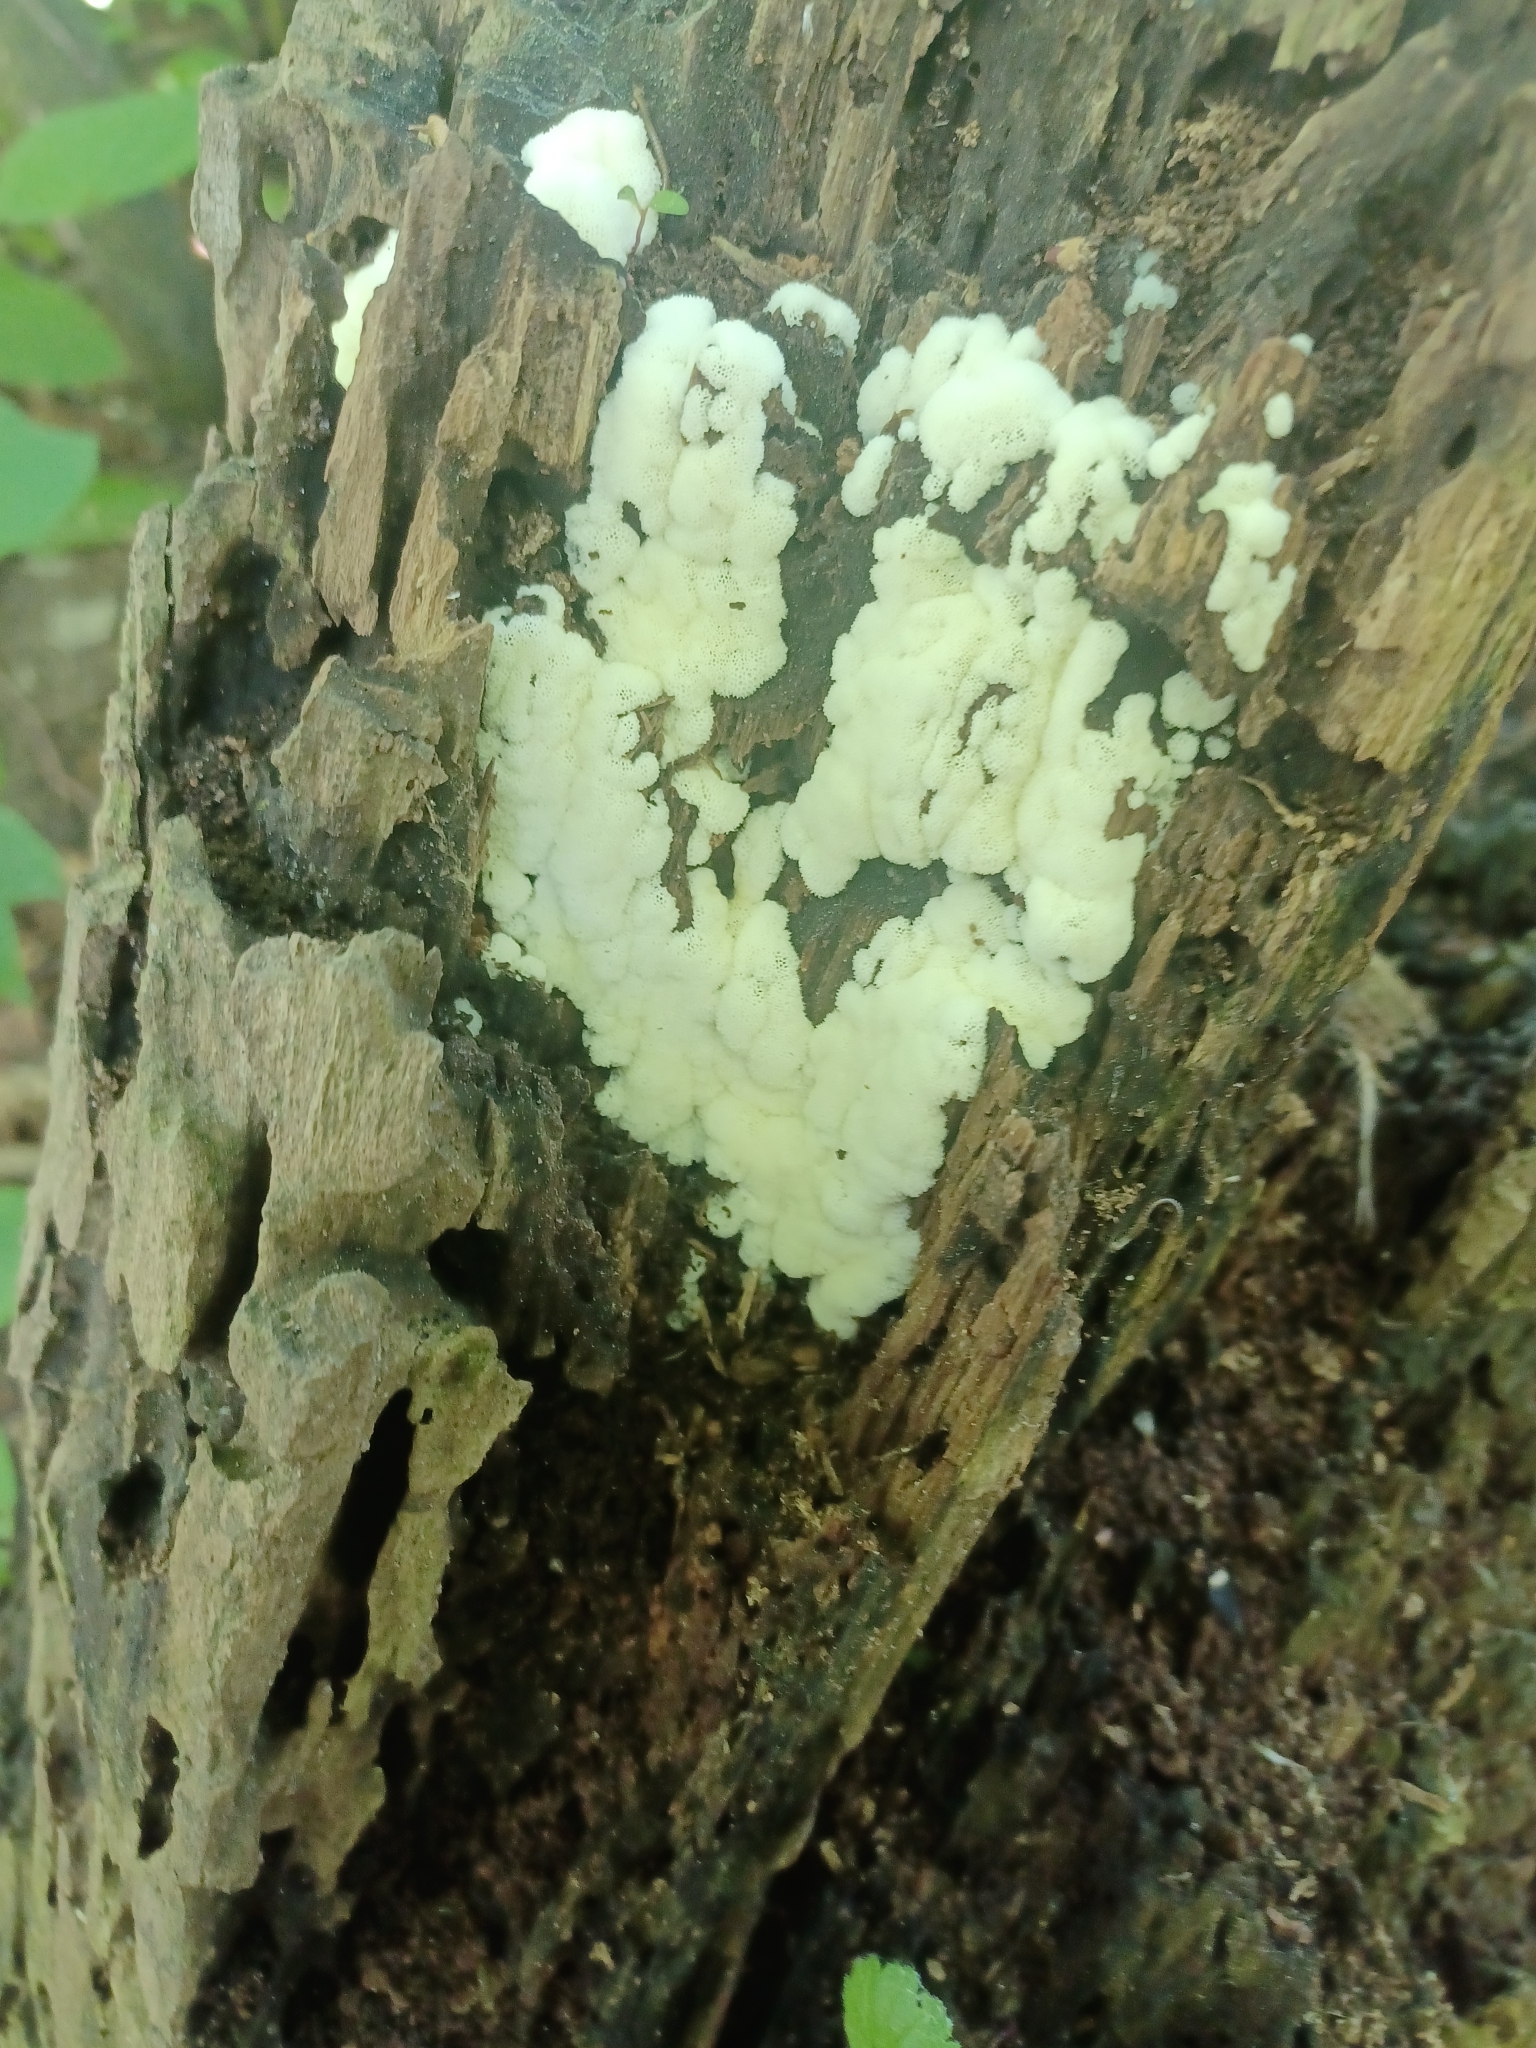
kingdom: Protozoa
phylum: Mycetozoa
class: Protosteliomycetes
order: Ceratiomyxales
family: Ceratiomyxaceae
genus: Ceratiomyxa
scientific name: Ceratiomyxa fruticulosa
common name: Honeycomb coral slime mold
